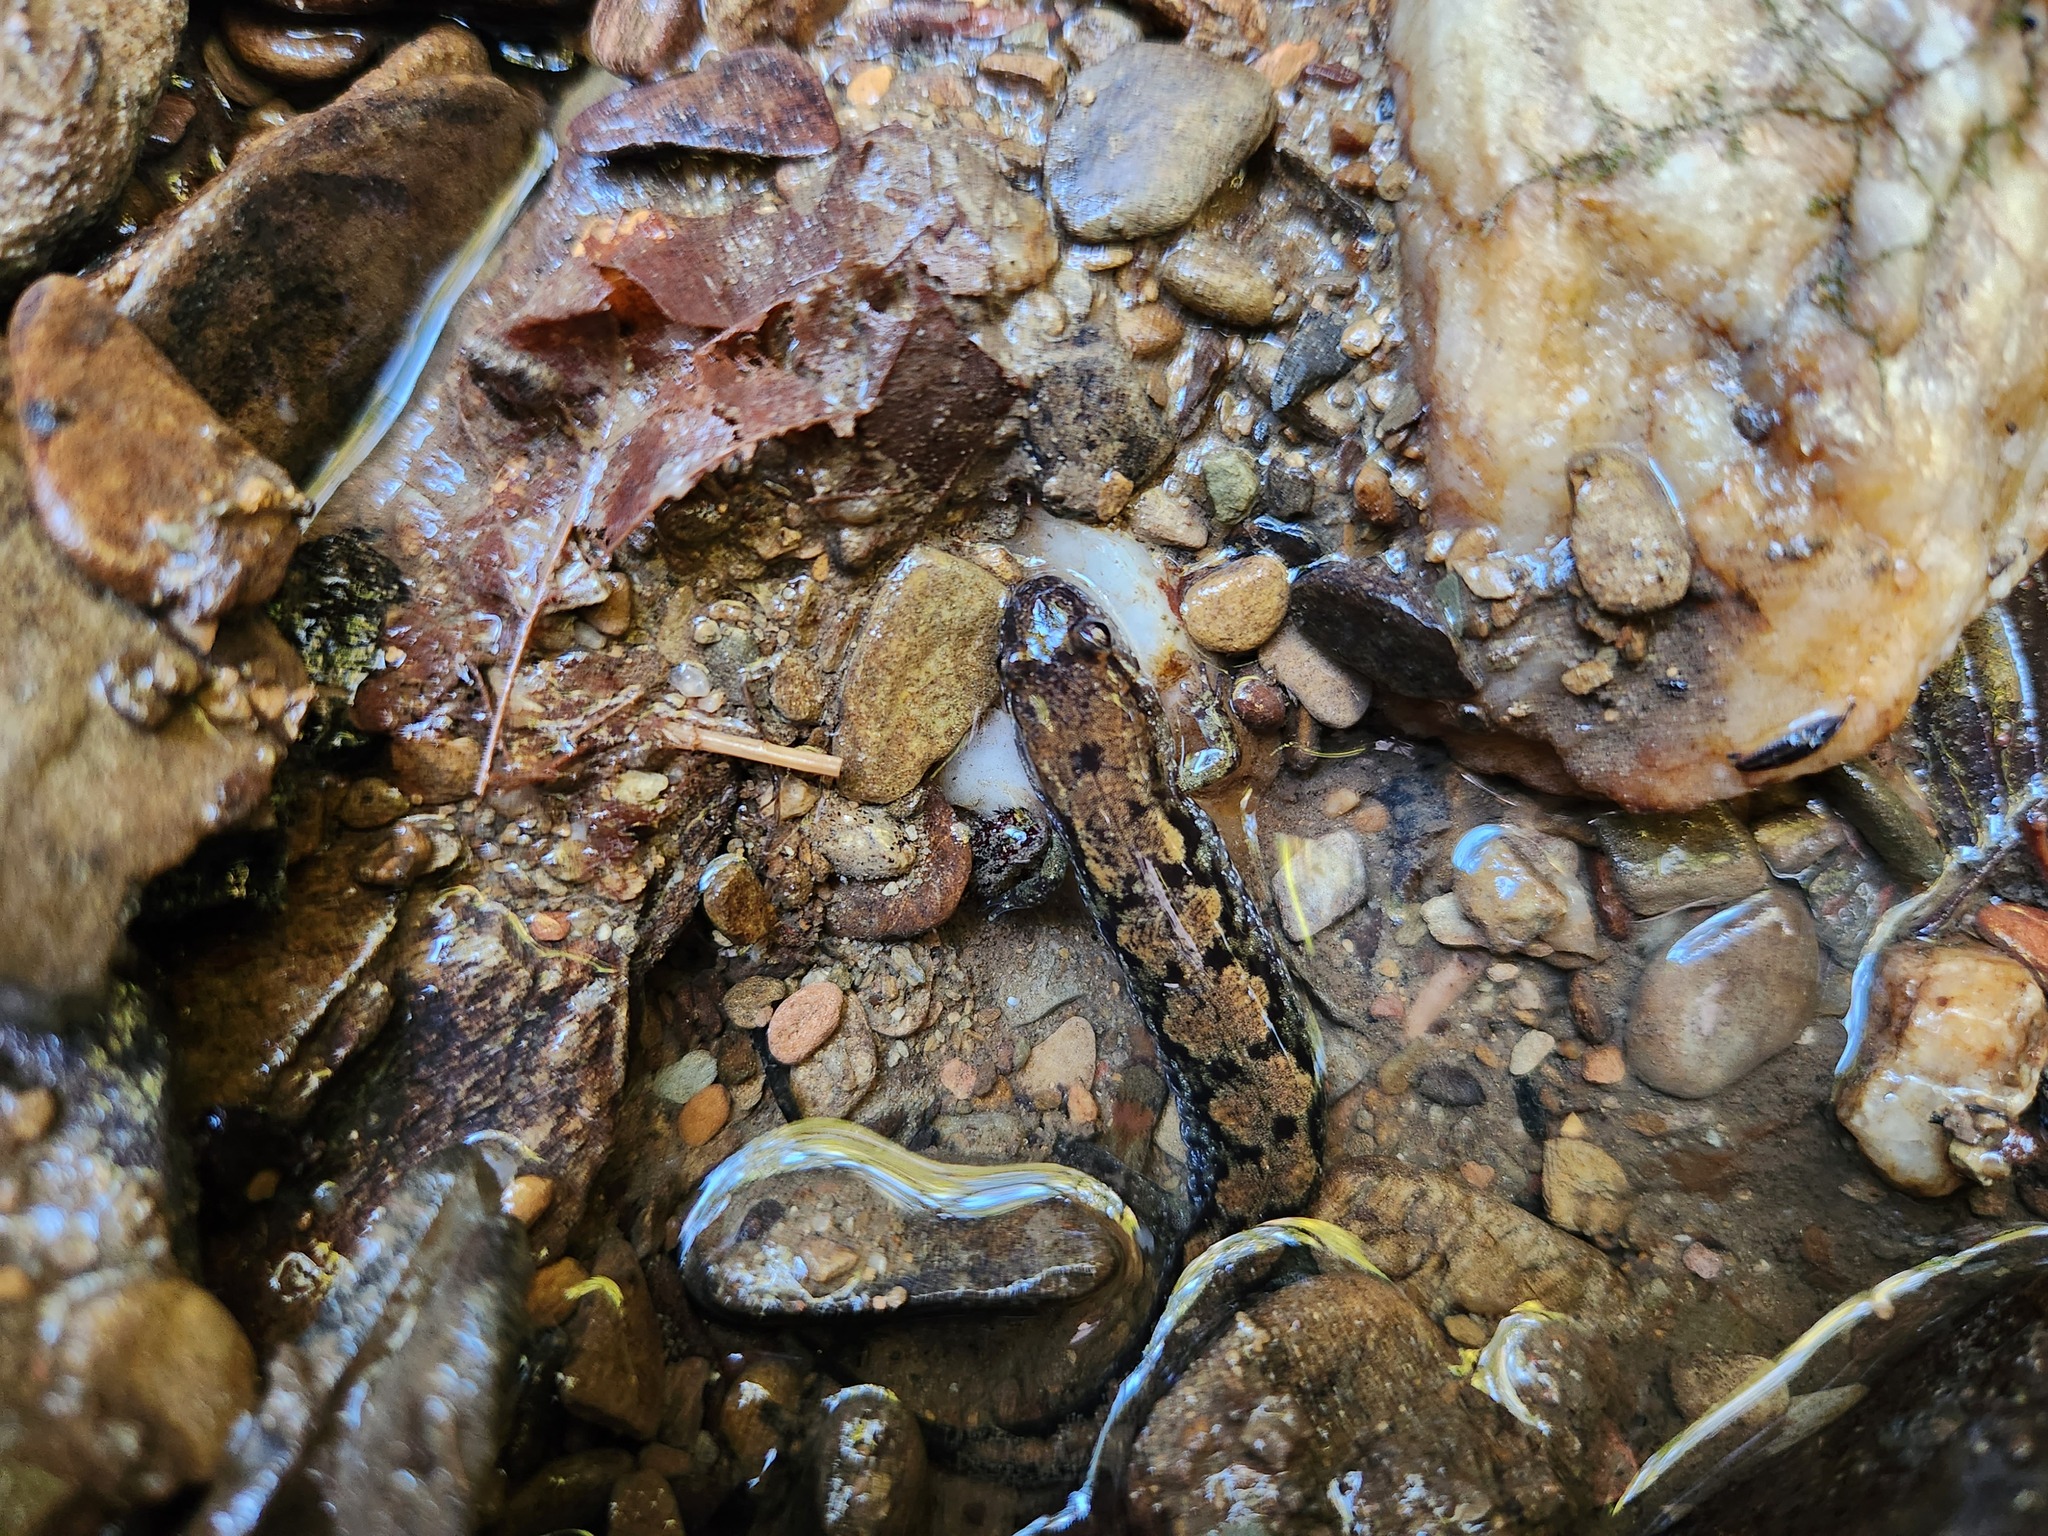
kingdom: Animalia
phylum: Chordata
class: Amphibia
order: Caudata
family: Plethodontidae
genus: Desmognathus
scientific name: Desmognathus
